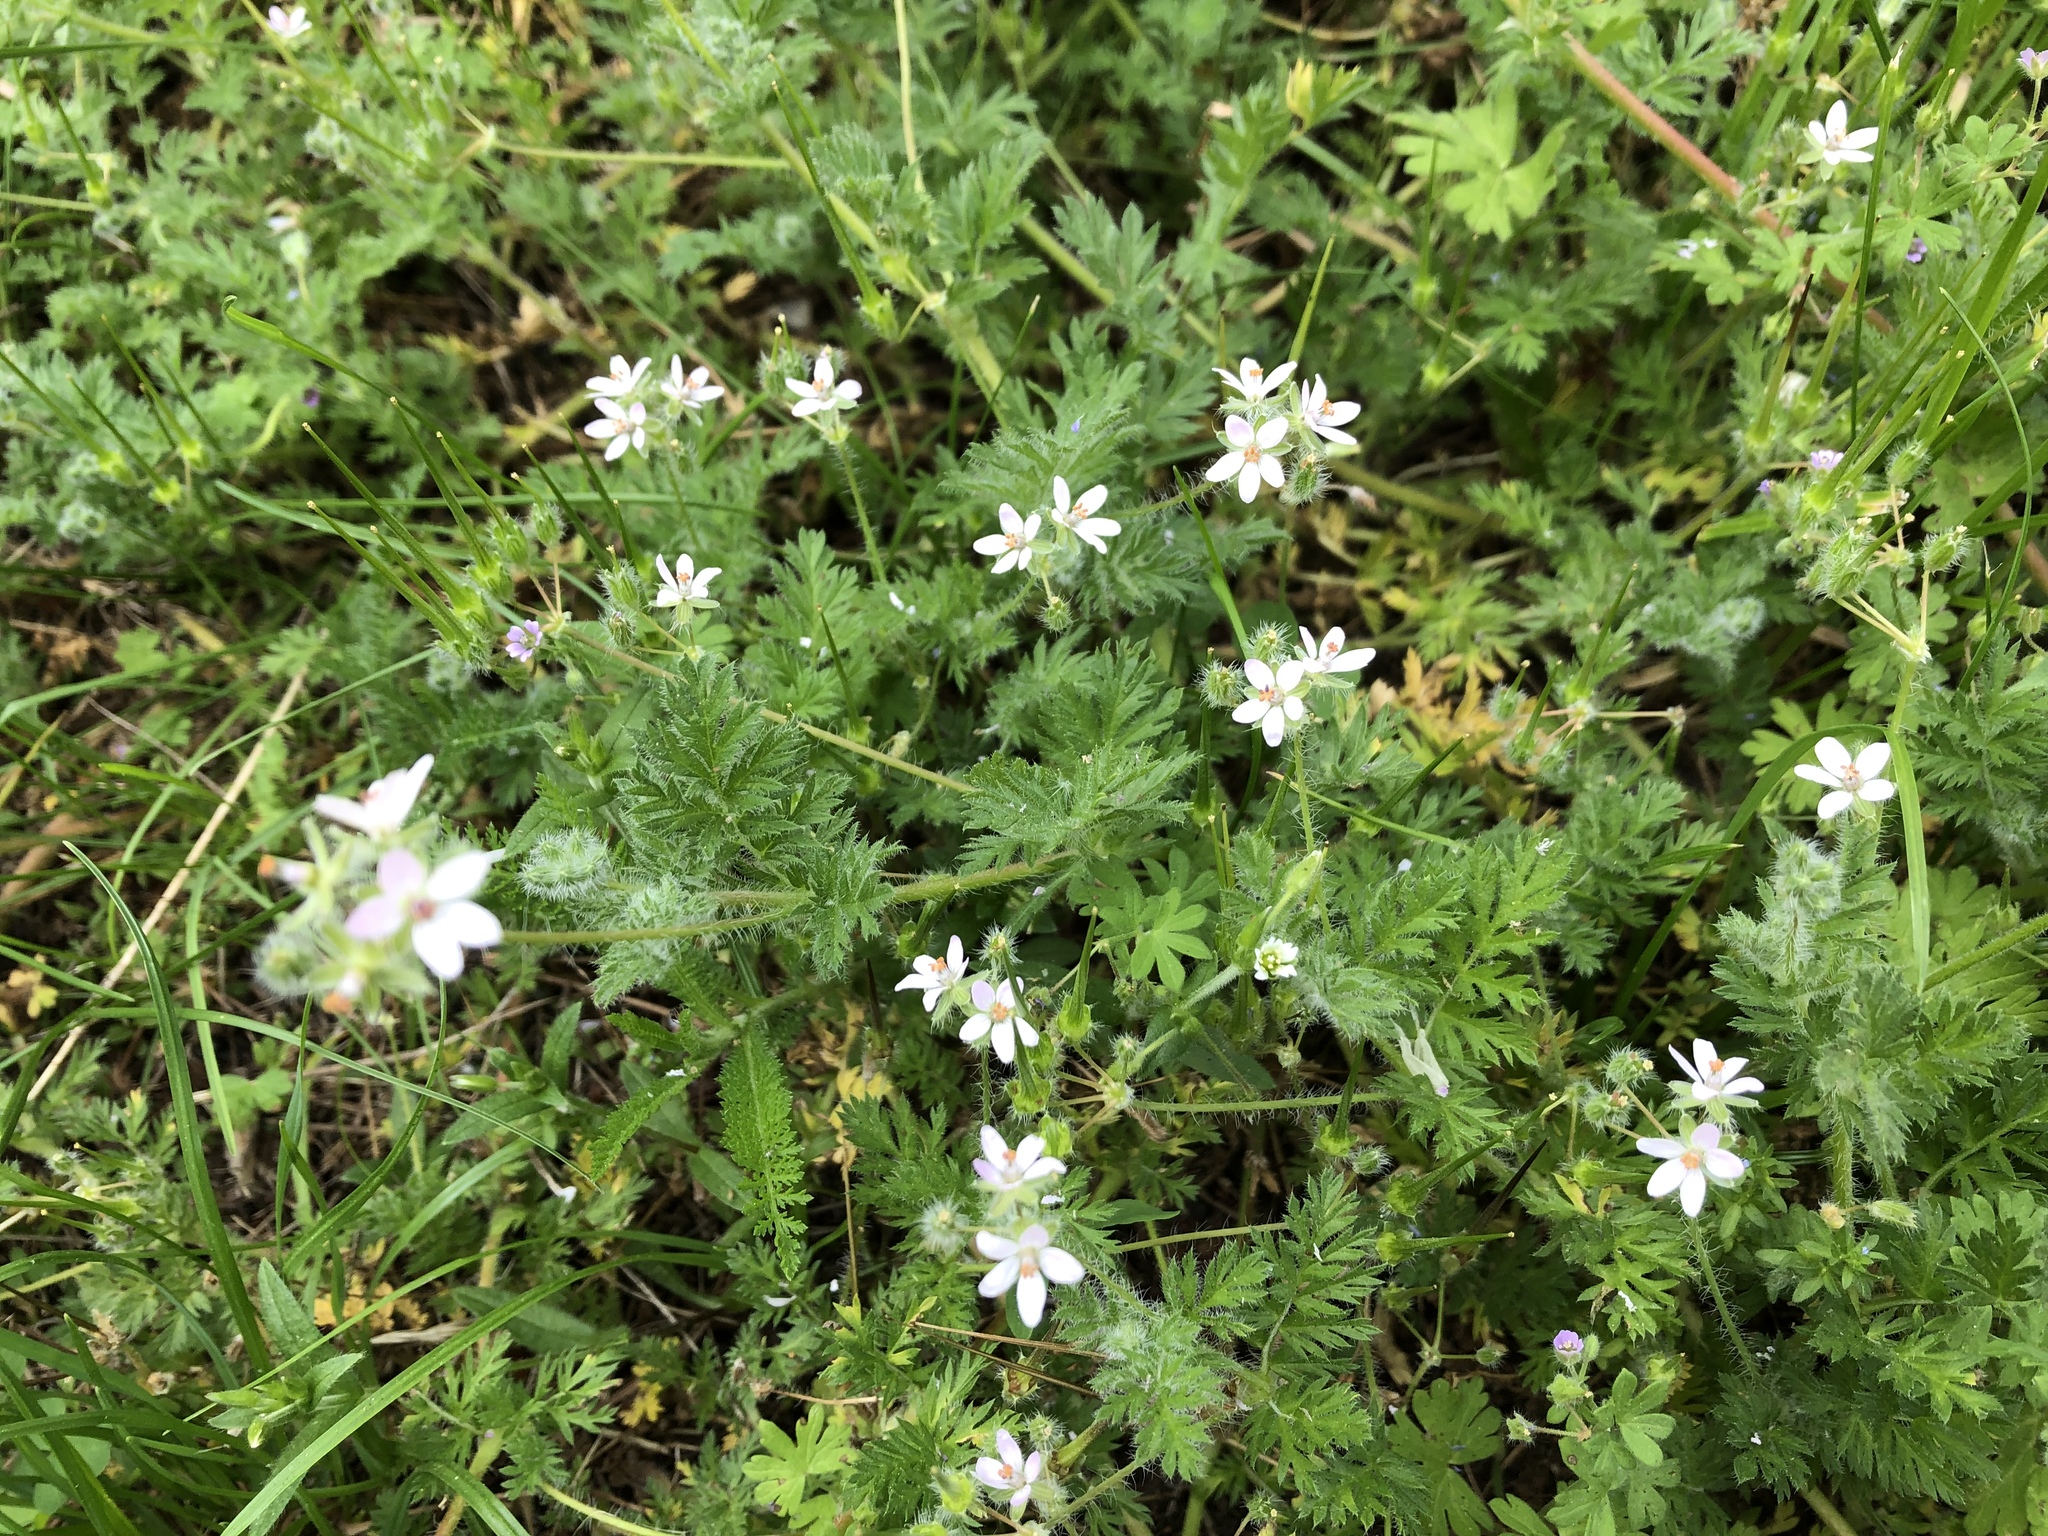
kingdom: Plantae
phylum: Tracheophyta
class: Magnoliopsida
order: Geraniales
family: Geraniaceae
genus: Erodium
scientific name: Erodium cicutarium
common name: Common stork's-bill
